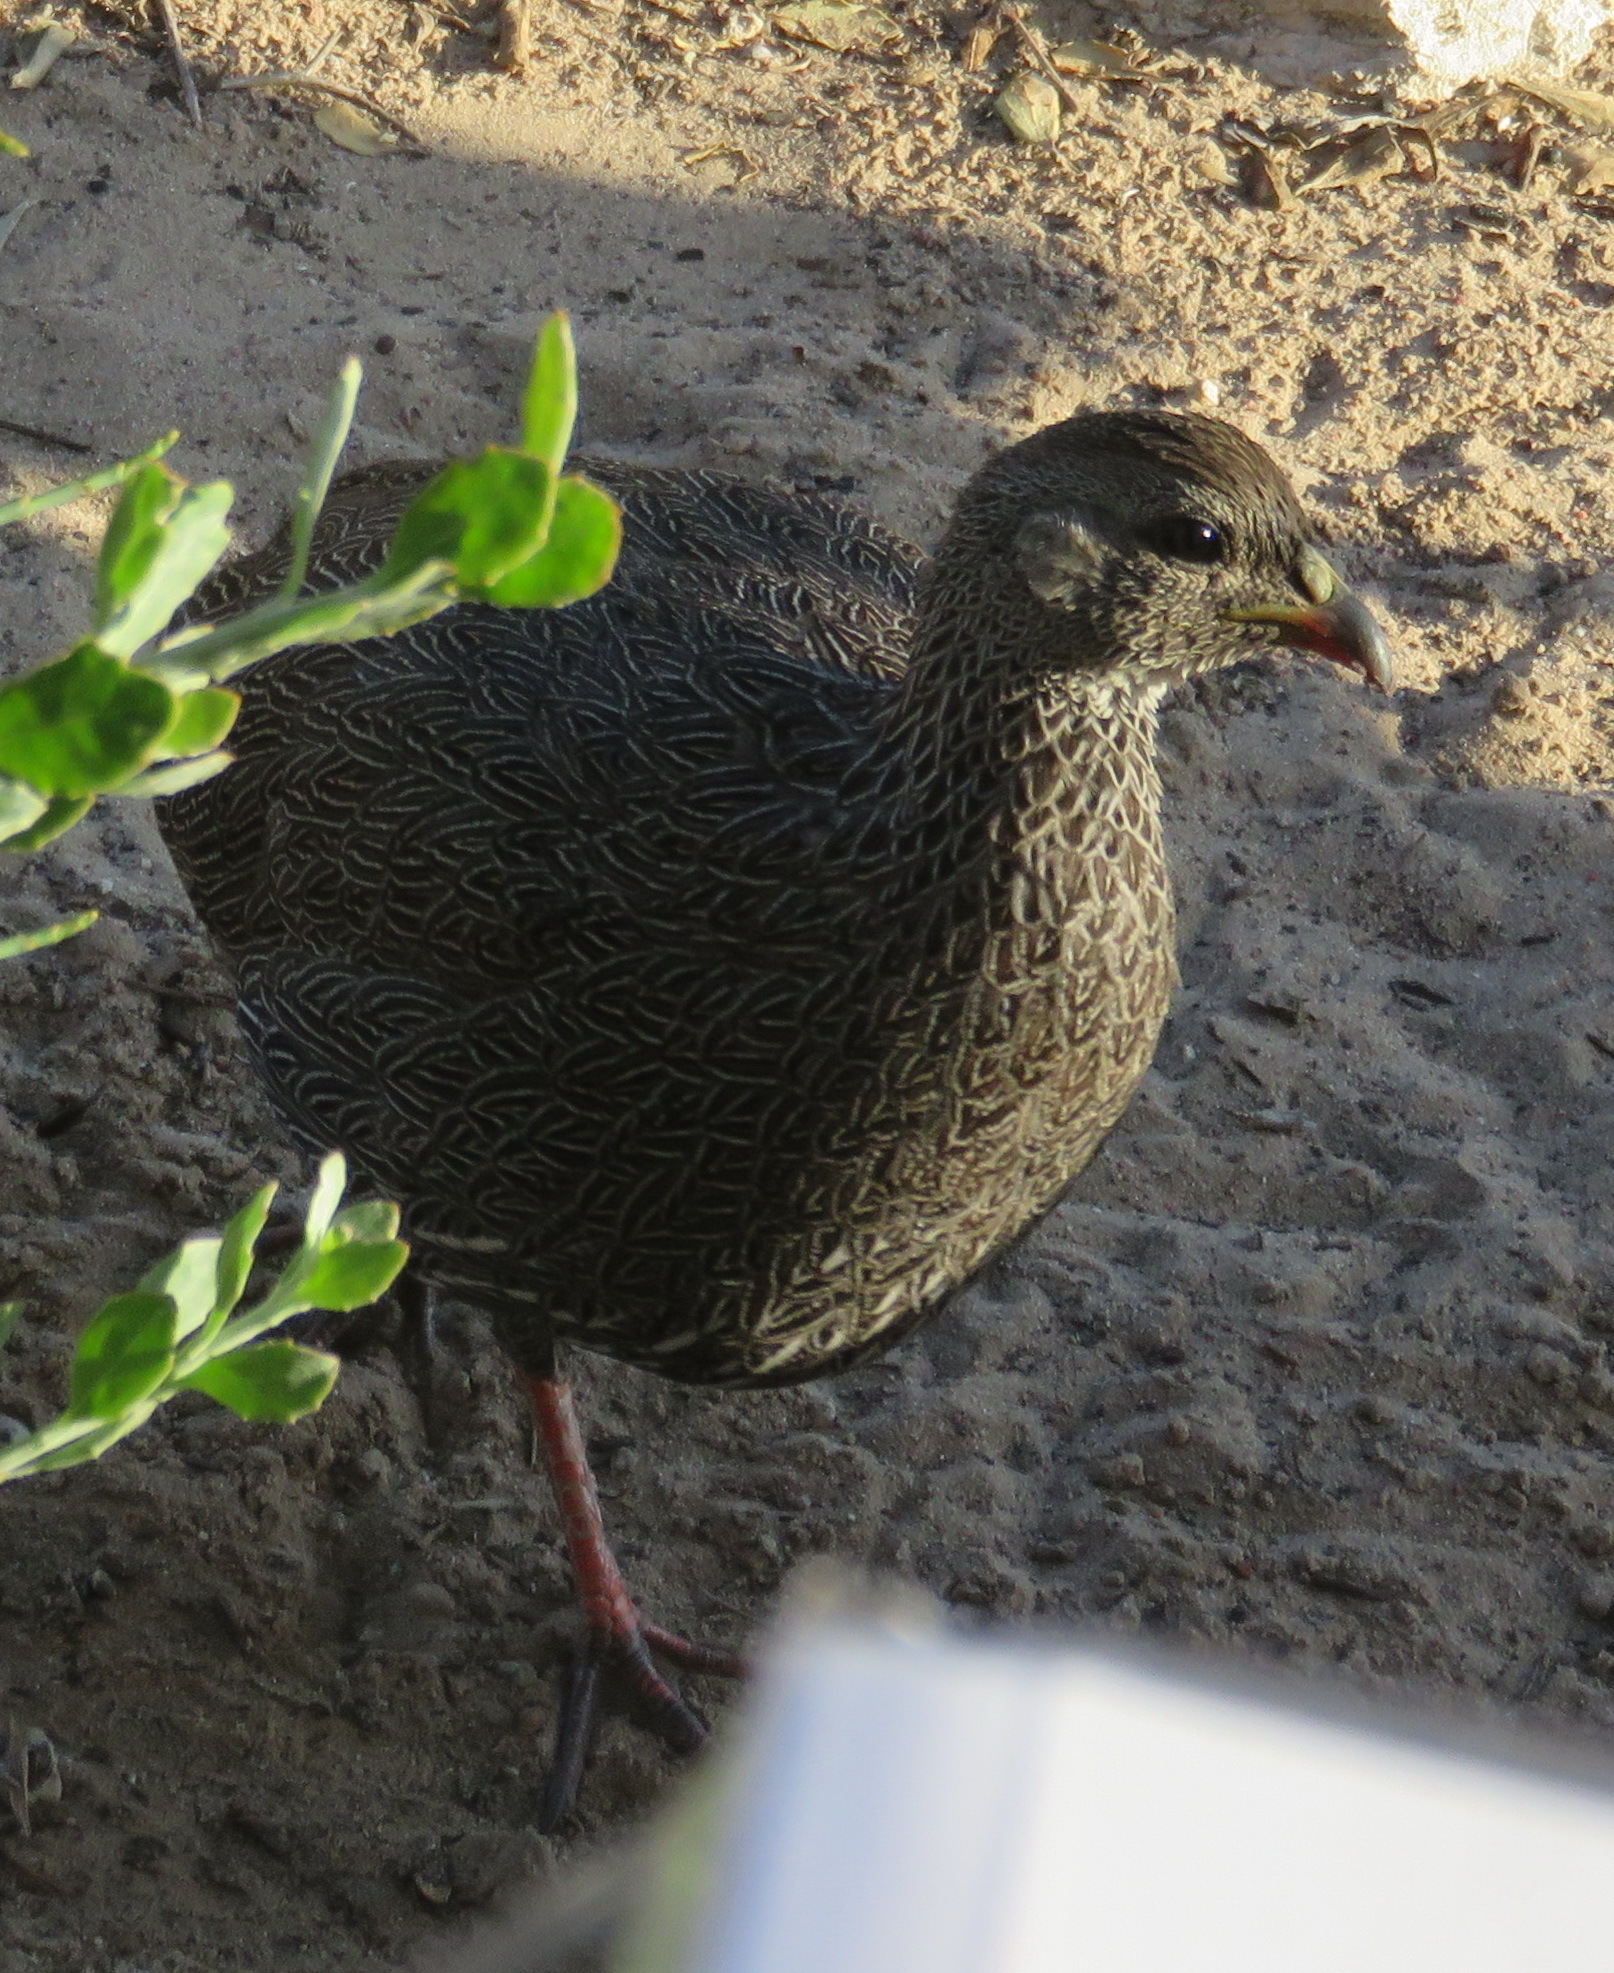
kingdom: Animalia
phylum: Chordata
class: Aves
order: Galliformes
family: Phasianidae
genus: Pternistis
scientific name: Pternistis capensis
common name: Cape spurfowl
